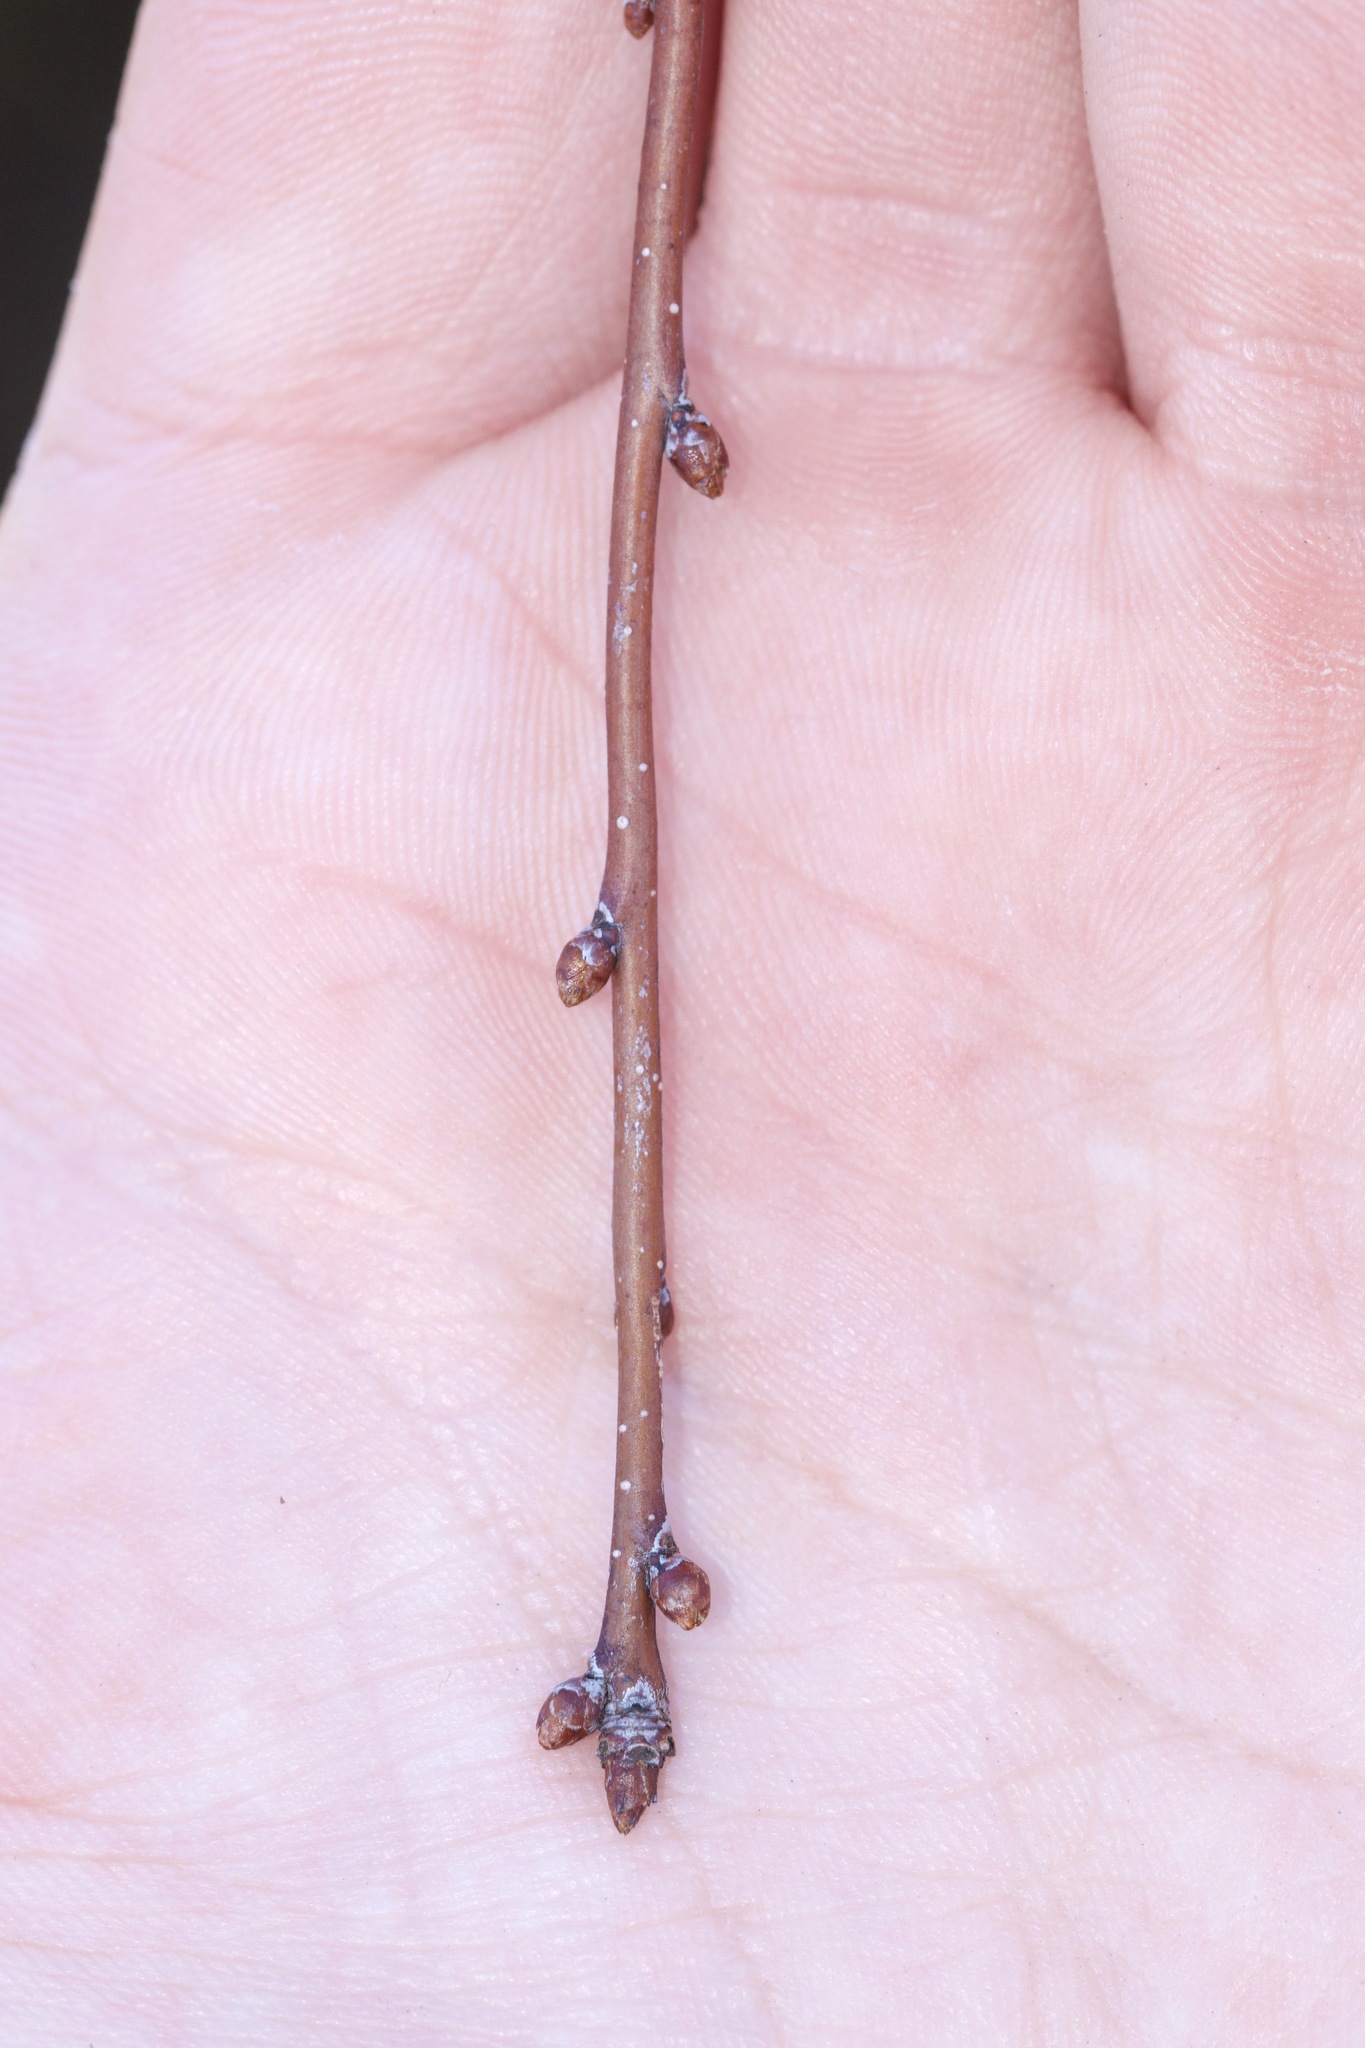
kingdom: Plantae
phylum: Tracheophyta
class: Magnoliopsida
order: Rosales
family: Rosaceae
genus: Prunus
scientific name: Prunus pensylvanica
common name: Pin cherry
